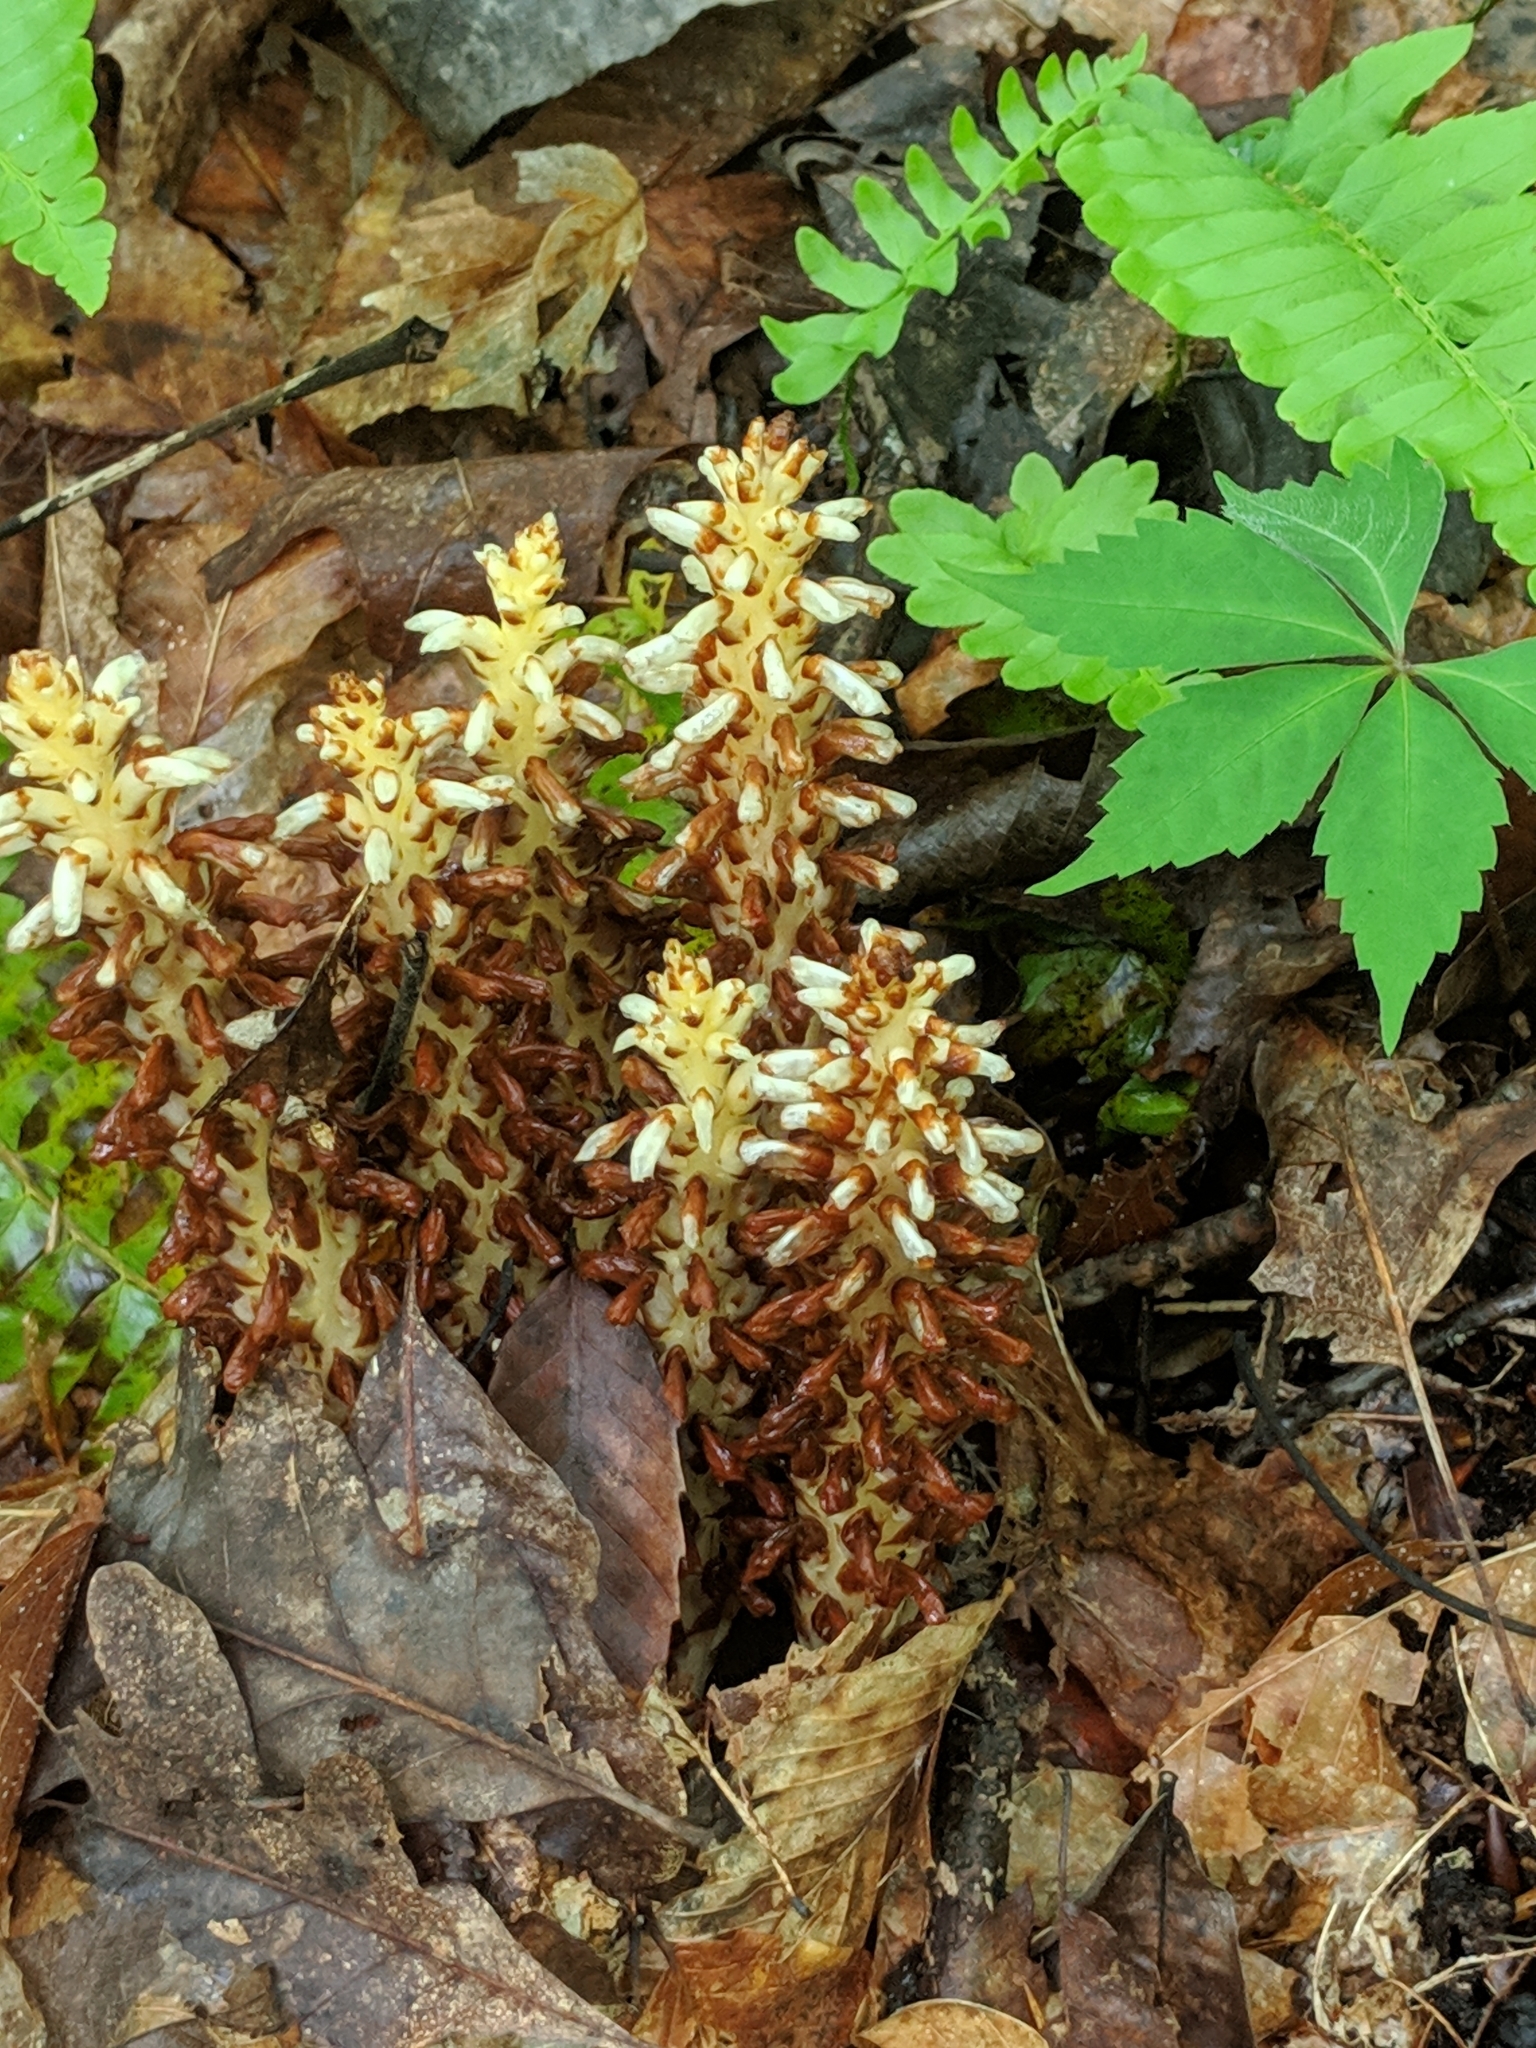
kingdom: Plantae
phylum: Tracheophyta
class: Magnoliopsida
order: Lamiales
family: Orobanchaceae
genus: Conopholis
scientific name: Conopholis americana
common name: American cancer-root
